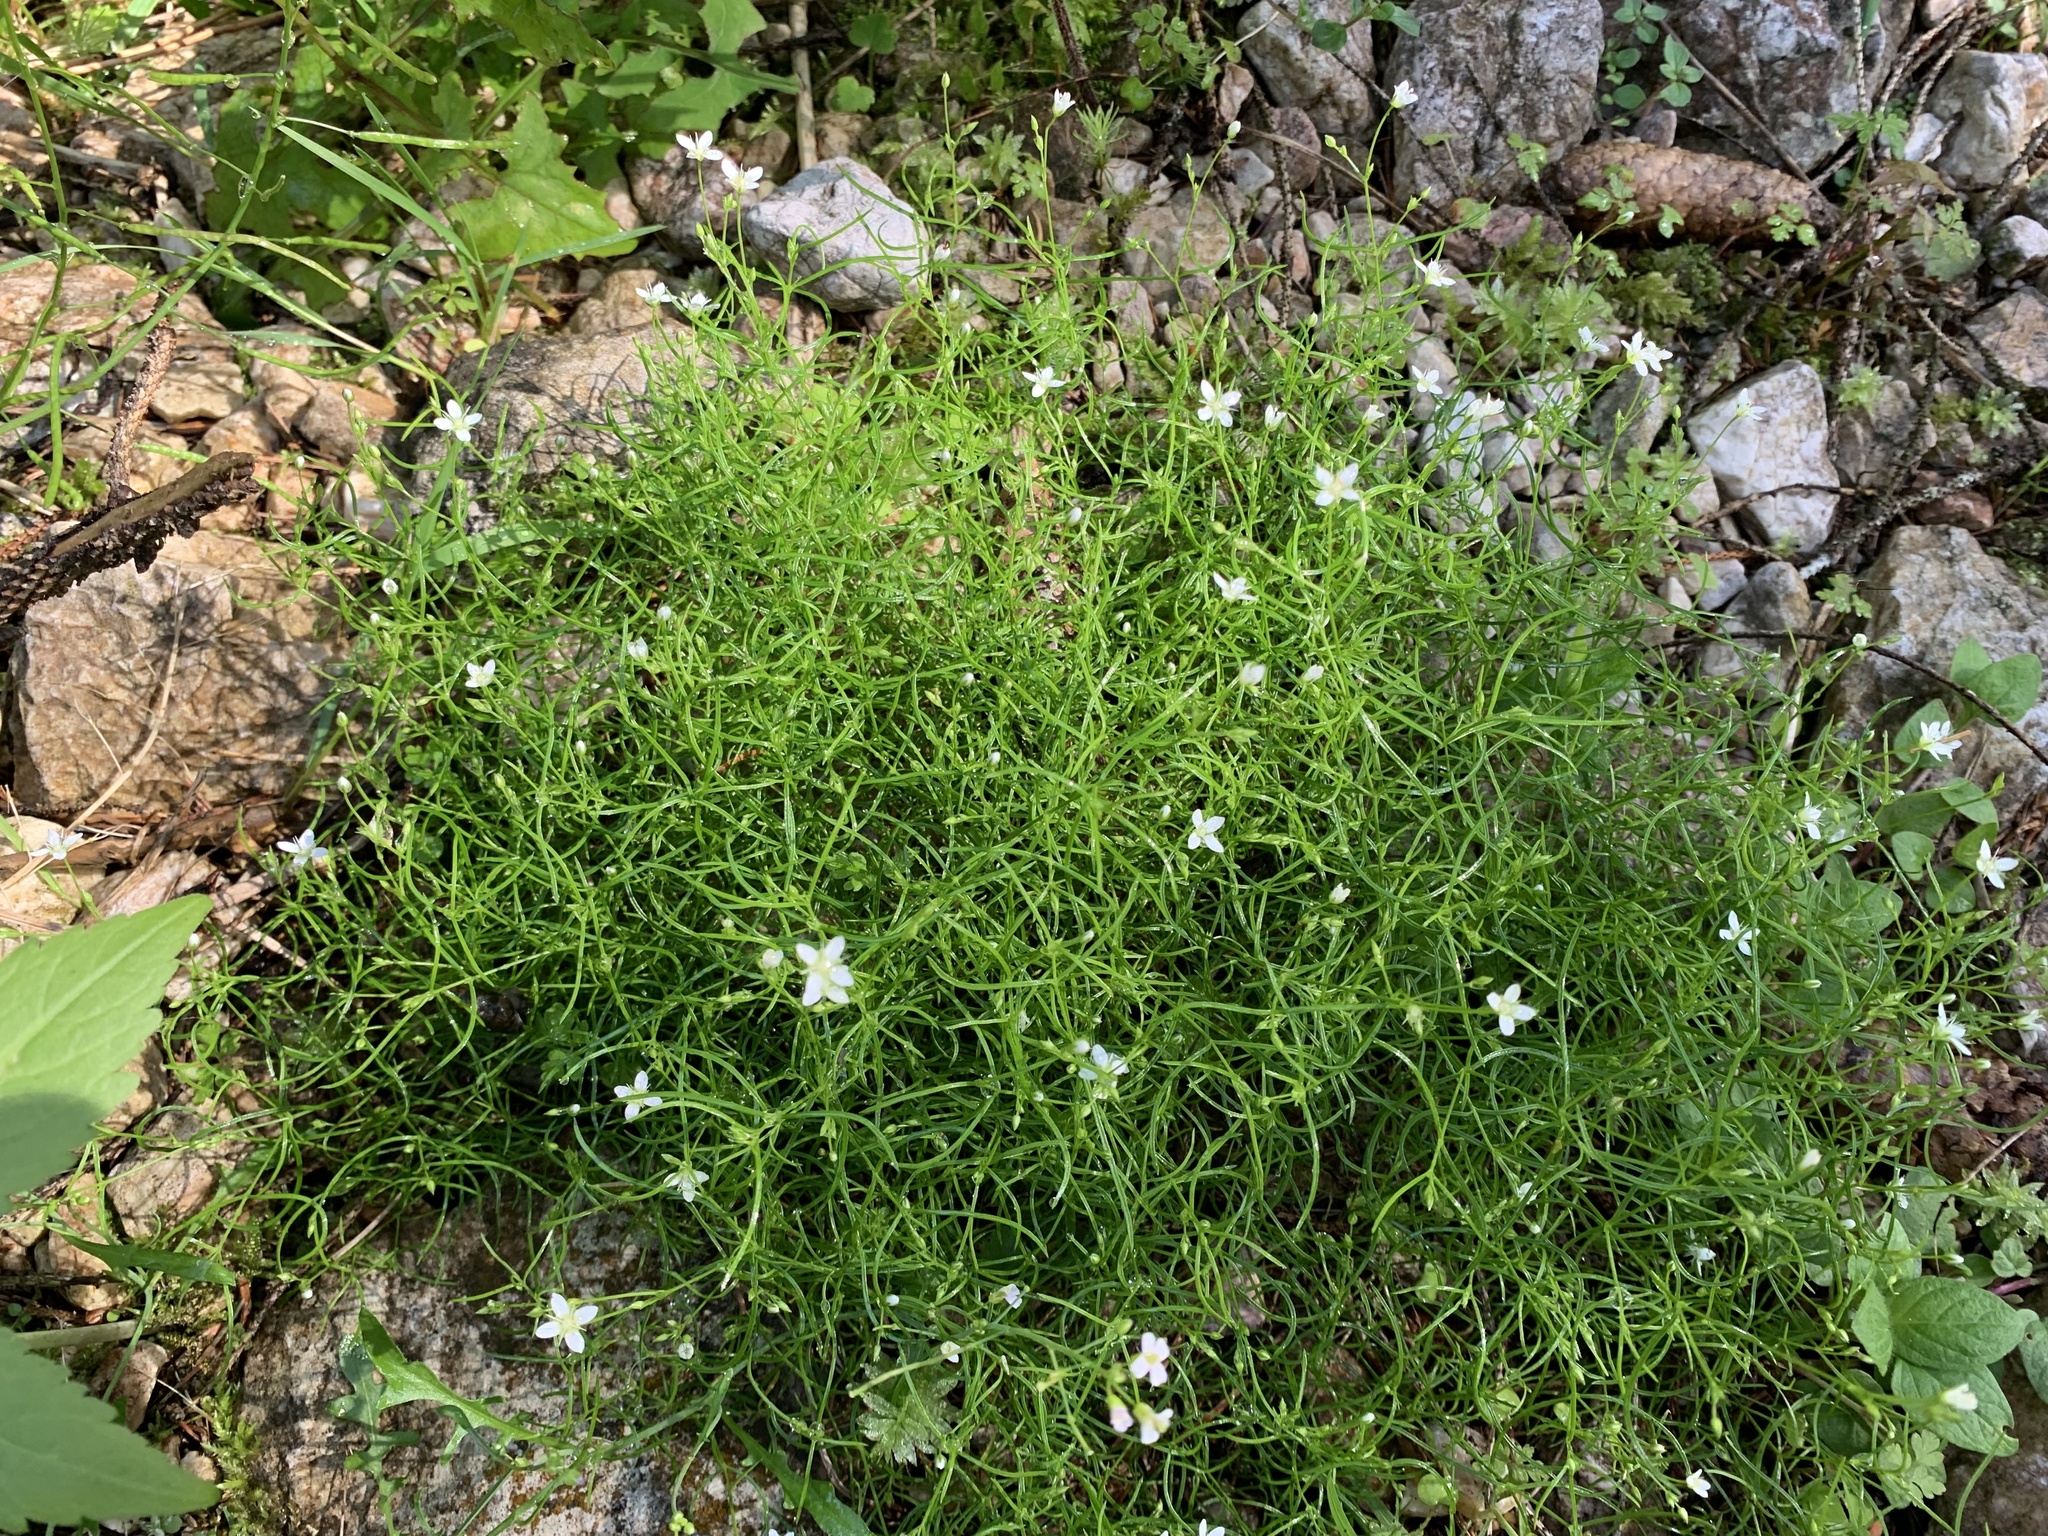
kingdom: Plantae
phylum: Tracheophyta
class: Magnoliopsida
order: Caryophyllales
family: Caryophyllaceae
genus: Moehringia
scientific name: Moehringia muscosa
